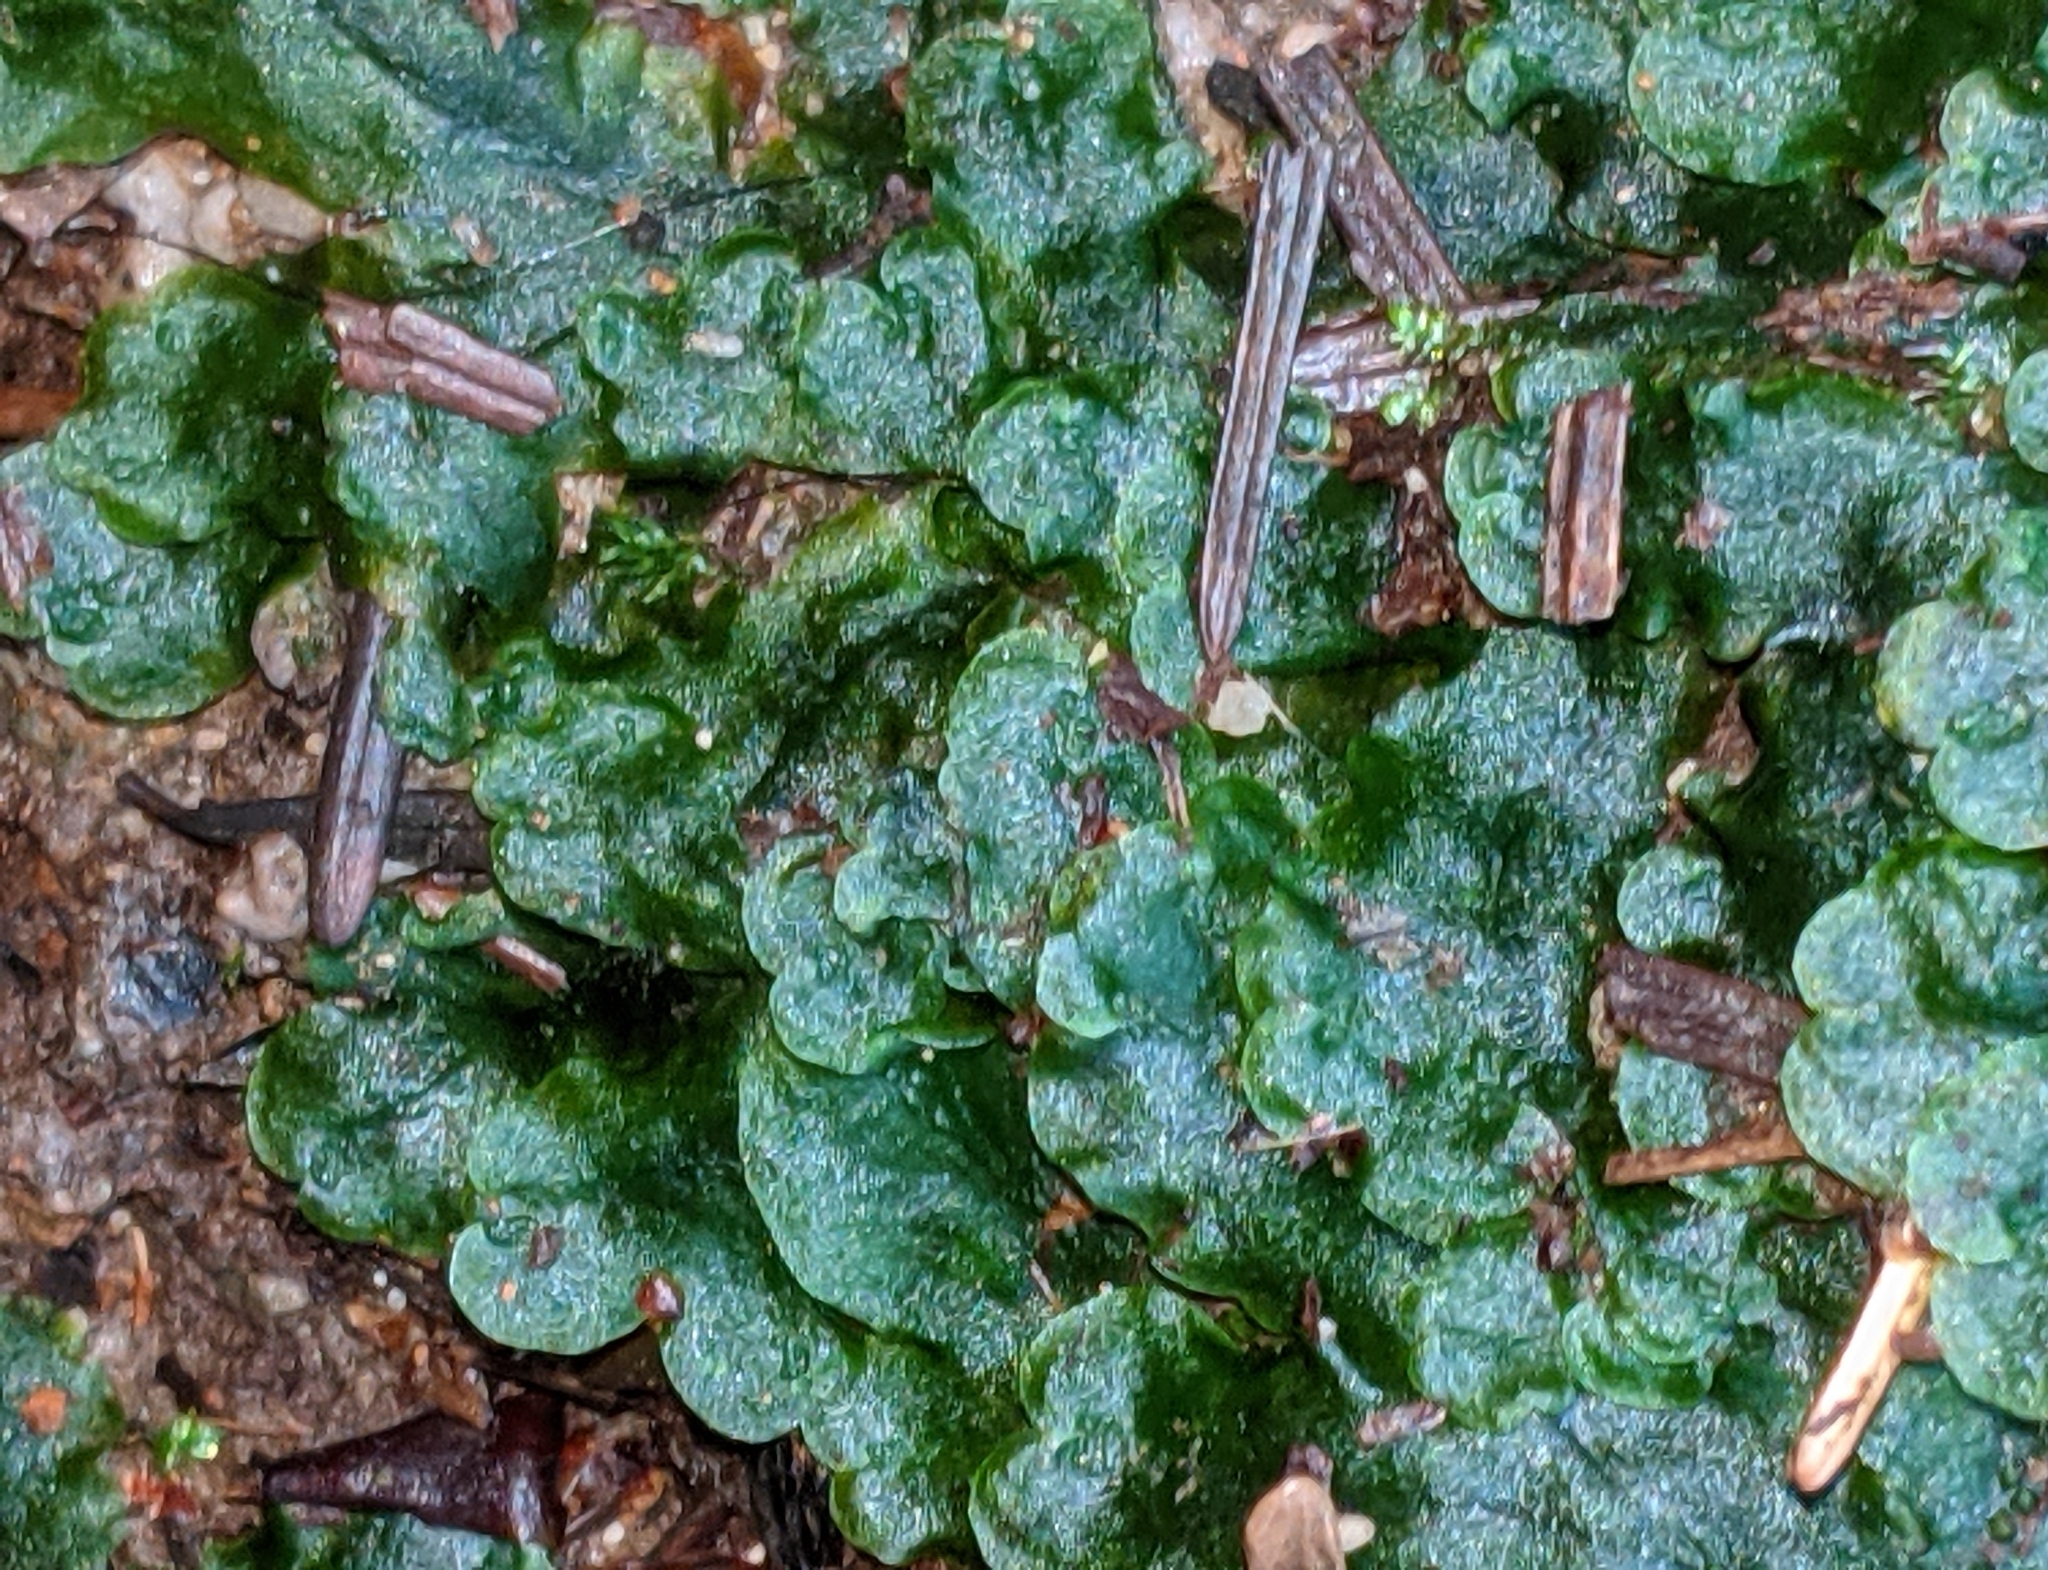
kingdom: Plantae
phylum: Marchantiophyta
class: Jungermanniopsida
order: Pelliales
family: Pelliaceae
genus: Pellia
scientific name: Pellia neesiana
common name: Nees  pellia
